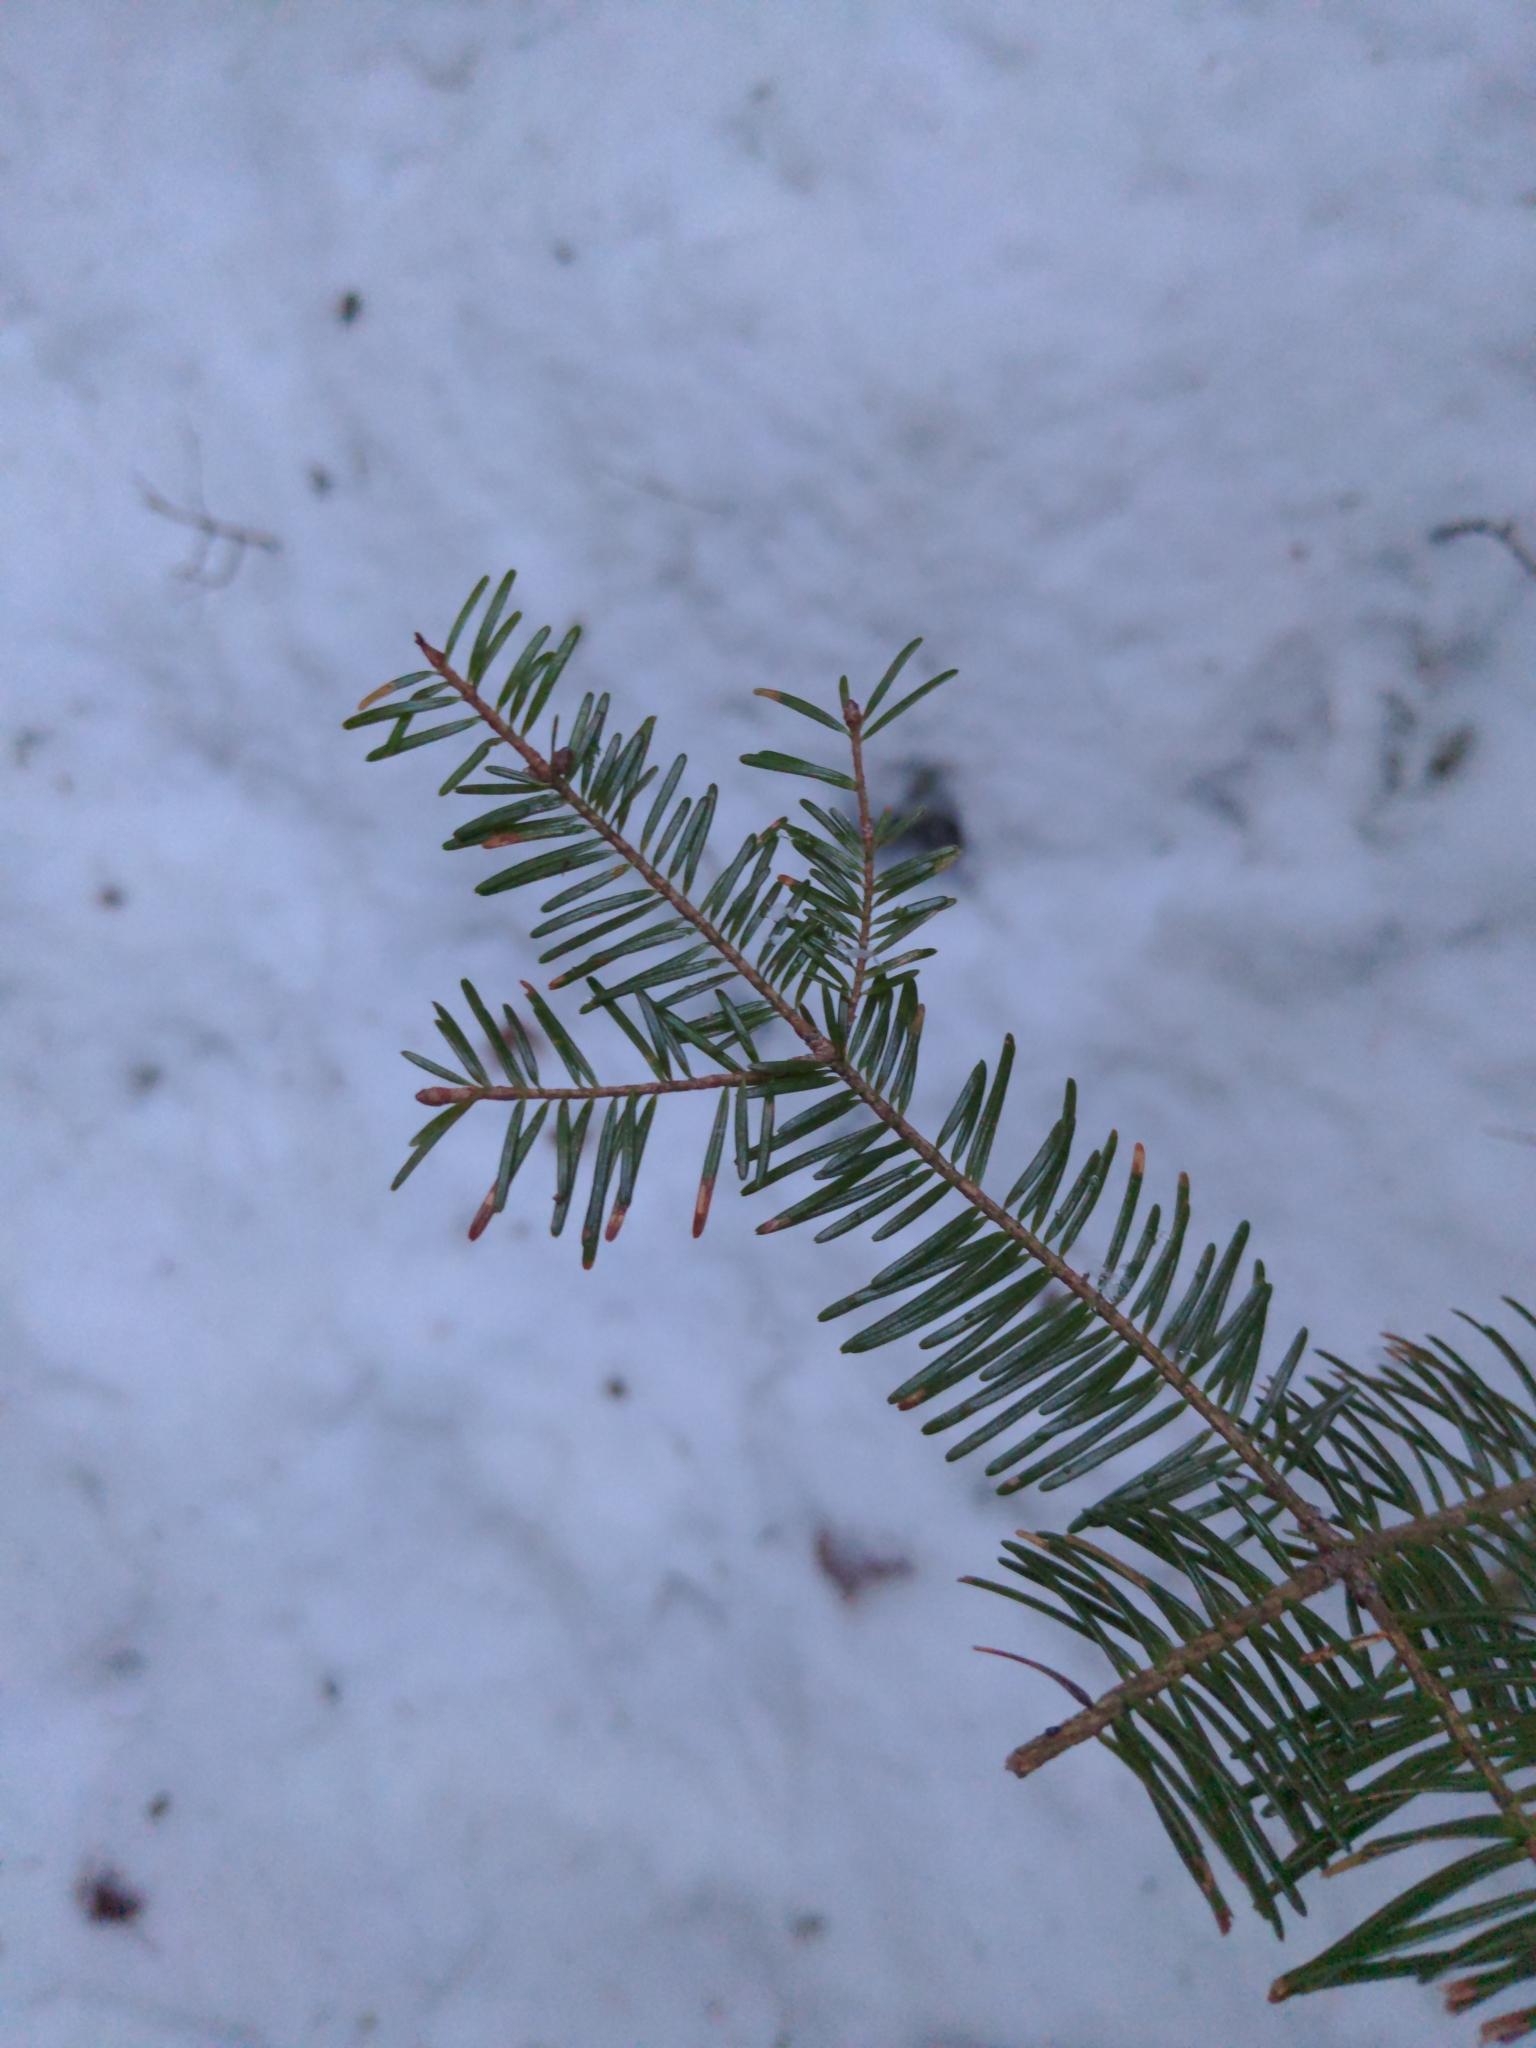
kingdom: Plantae
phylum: Tracheophyta
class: Pinopsida
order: Pinales
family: Pinaceae
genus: Abies
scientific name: Abies balsamea
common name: Balsam fir
